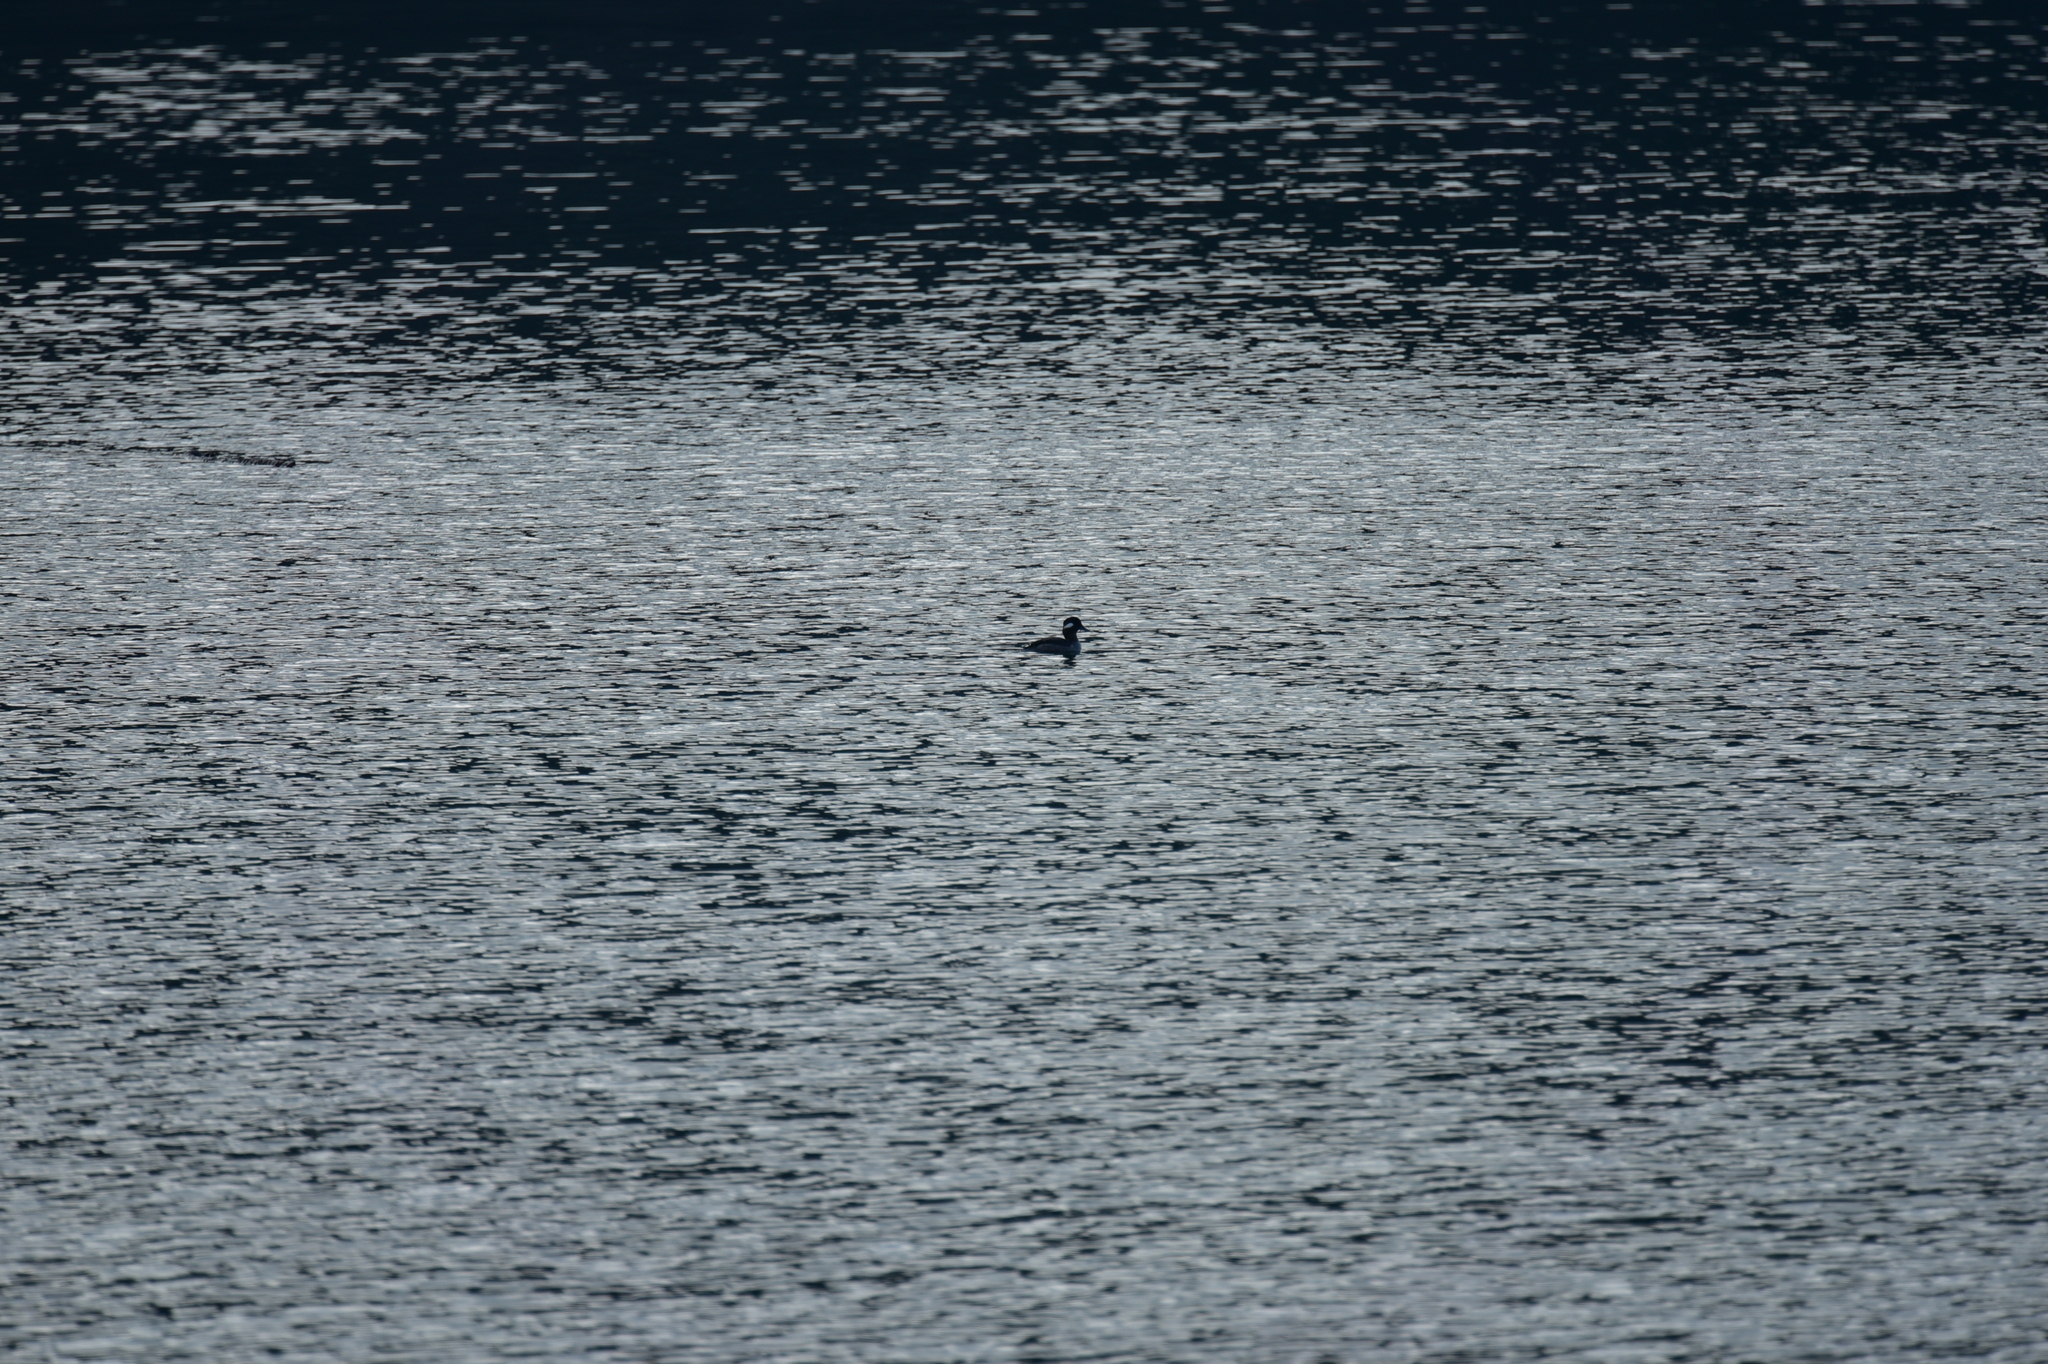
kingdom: Animalia
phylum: Chordata
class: Aves
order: Anseriformes
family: Anatidae
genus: Bucephala
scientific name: Bucephala albeola
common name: Bufflehead
